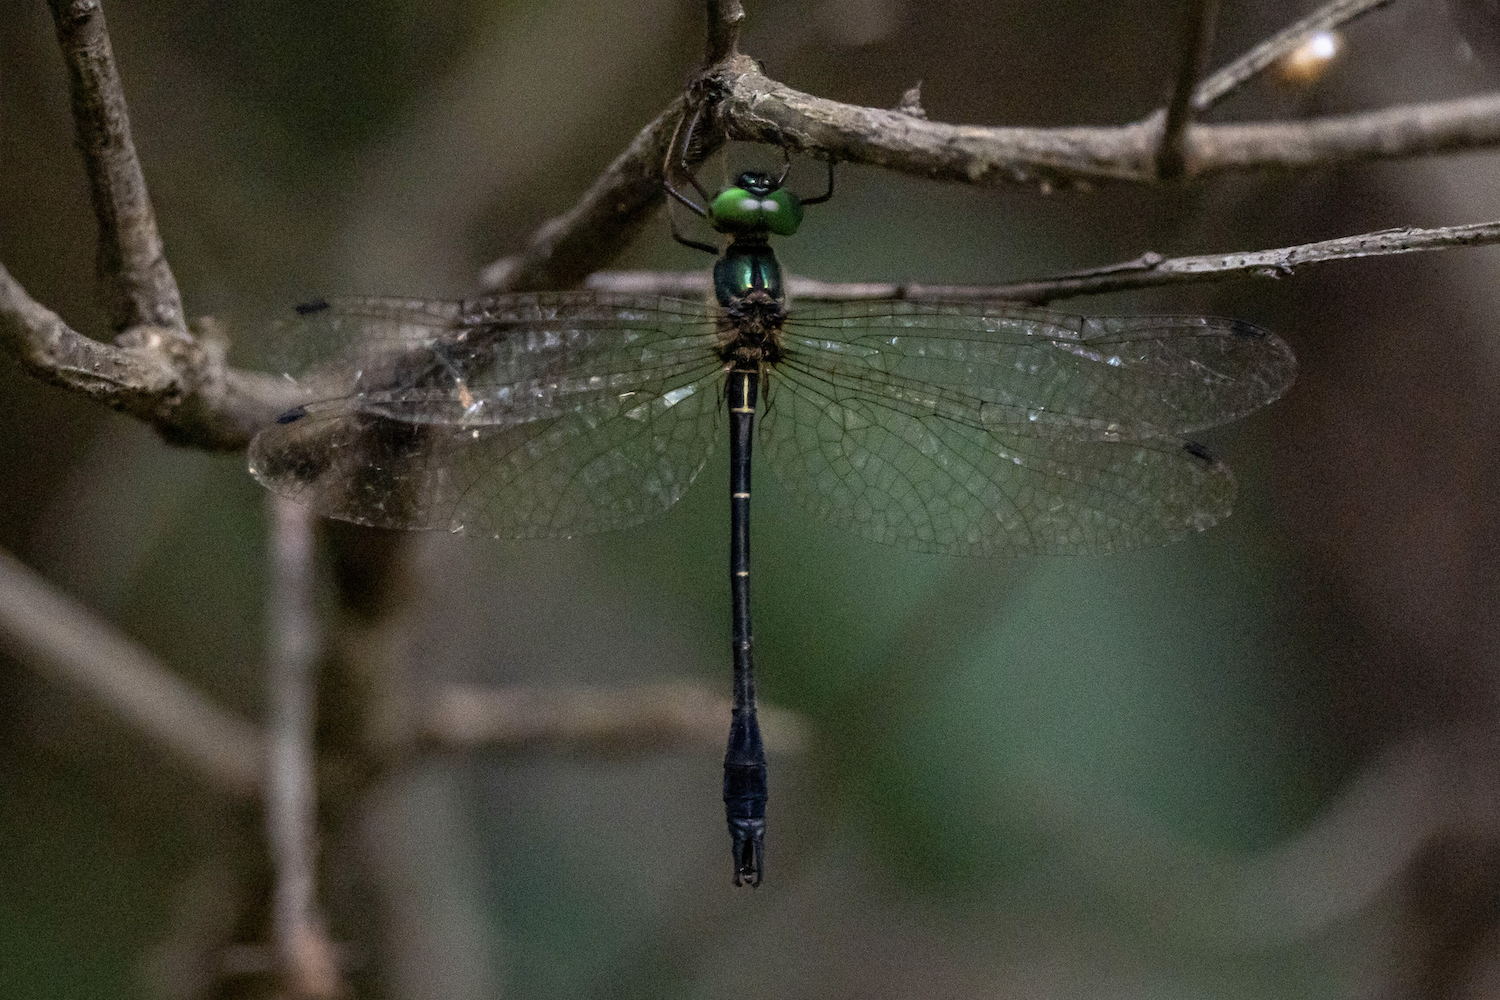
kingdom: Animalia
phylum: Arthropoda
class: Insecta
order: Odonata
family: Synthemistidae
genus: Idionyx
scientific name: Idionyx victor
